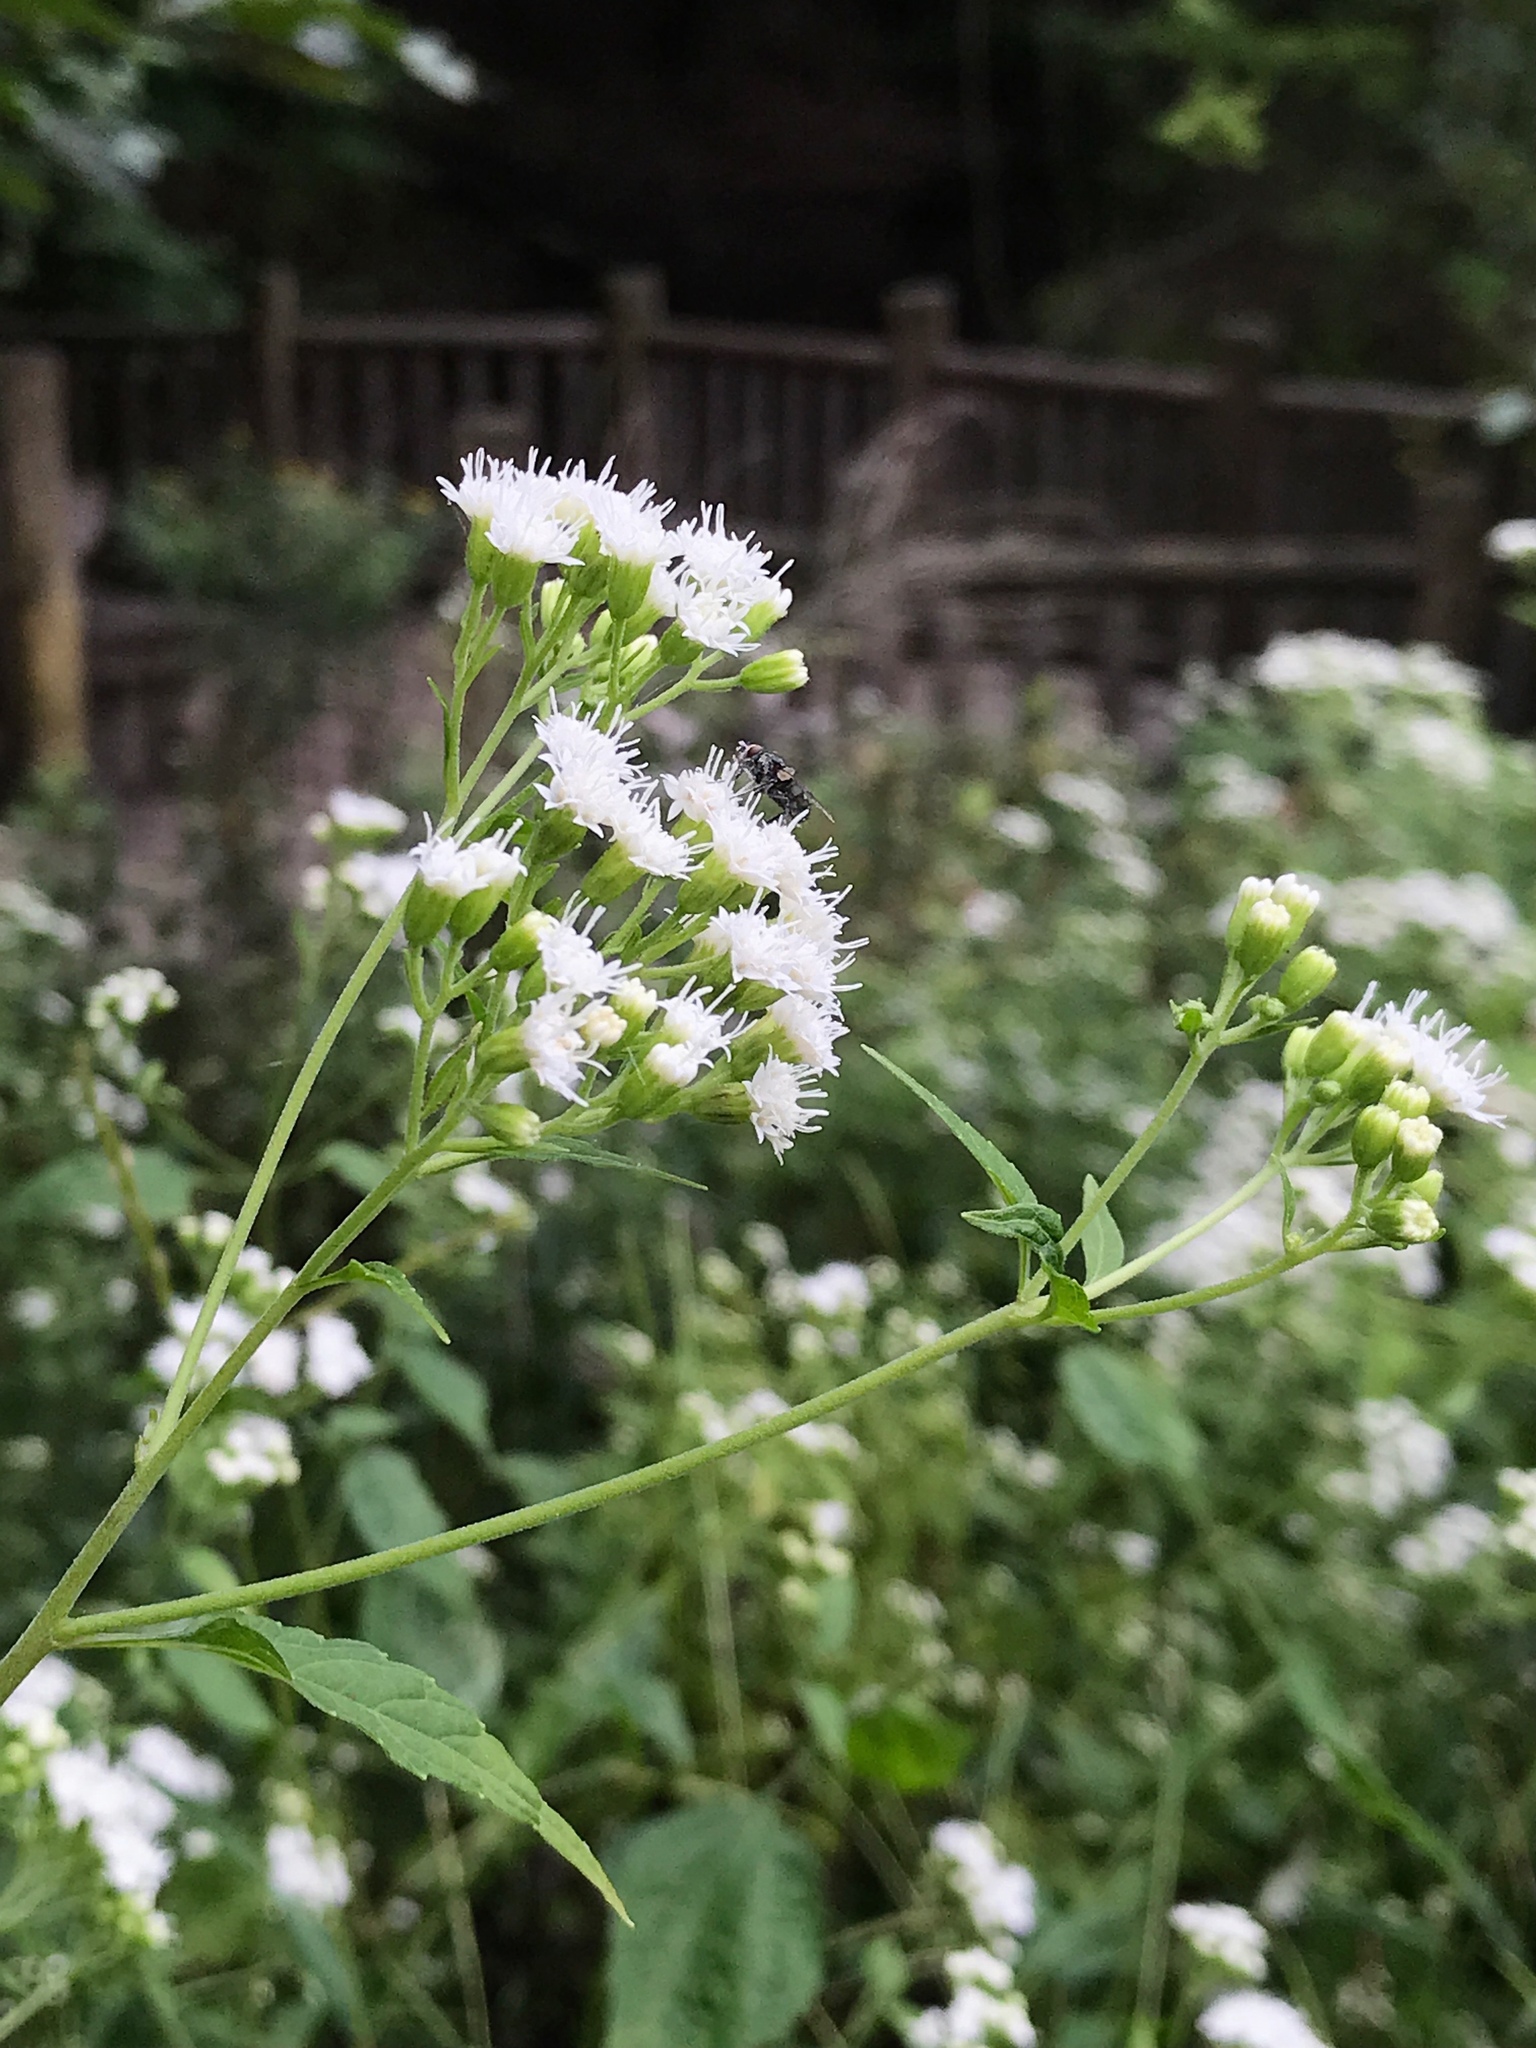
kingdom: Plantae
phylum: Tracheophyta
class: Magnoliopsida
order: Asterales
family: Asteraceae
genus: Ageratina
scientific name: Ageratina altissima
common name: White snakeroot
